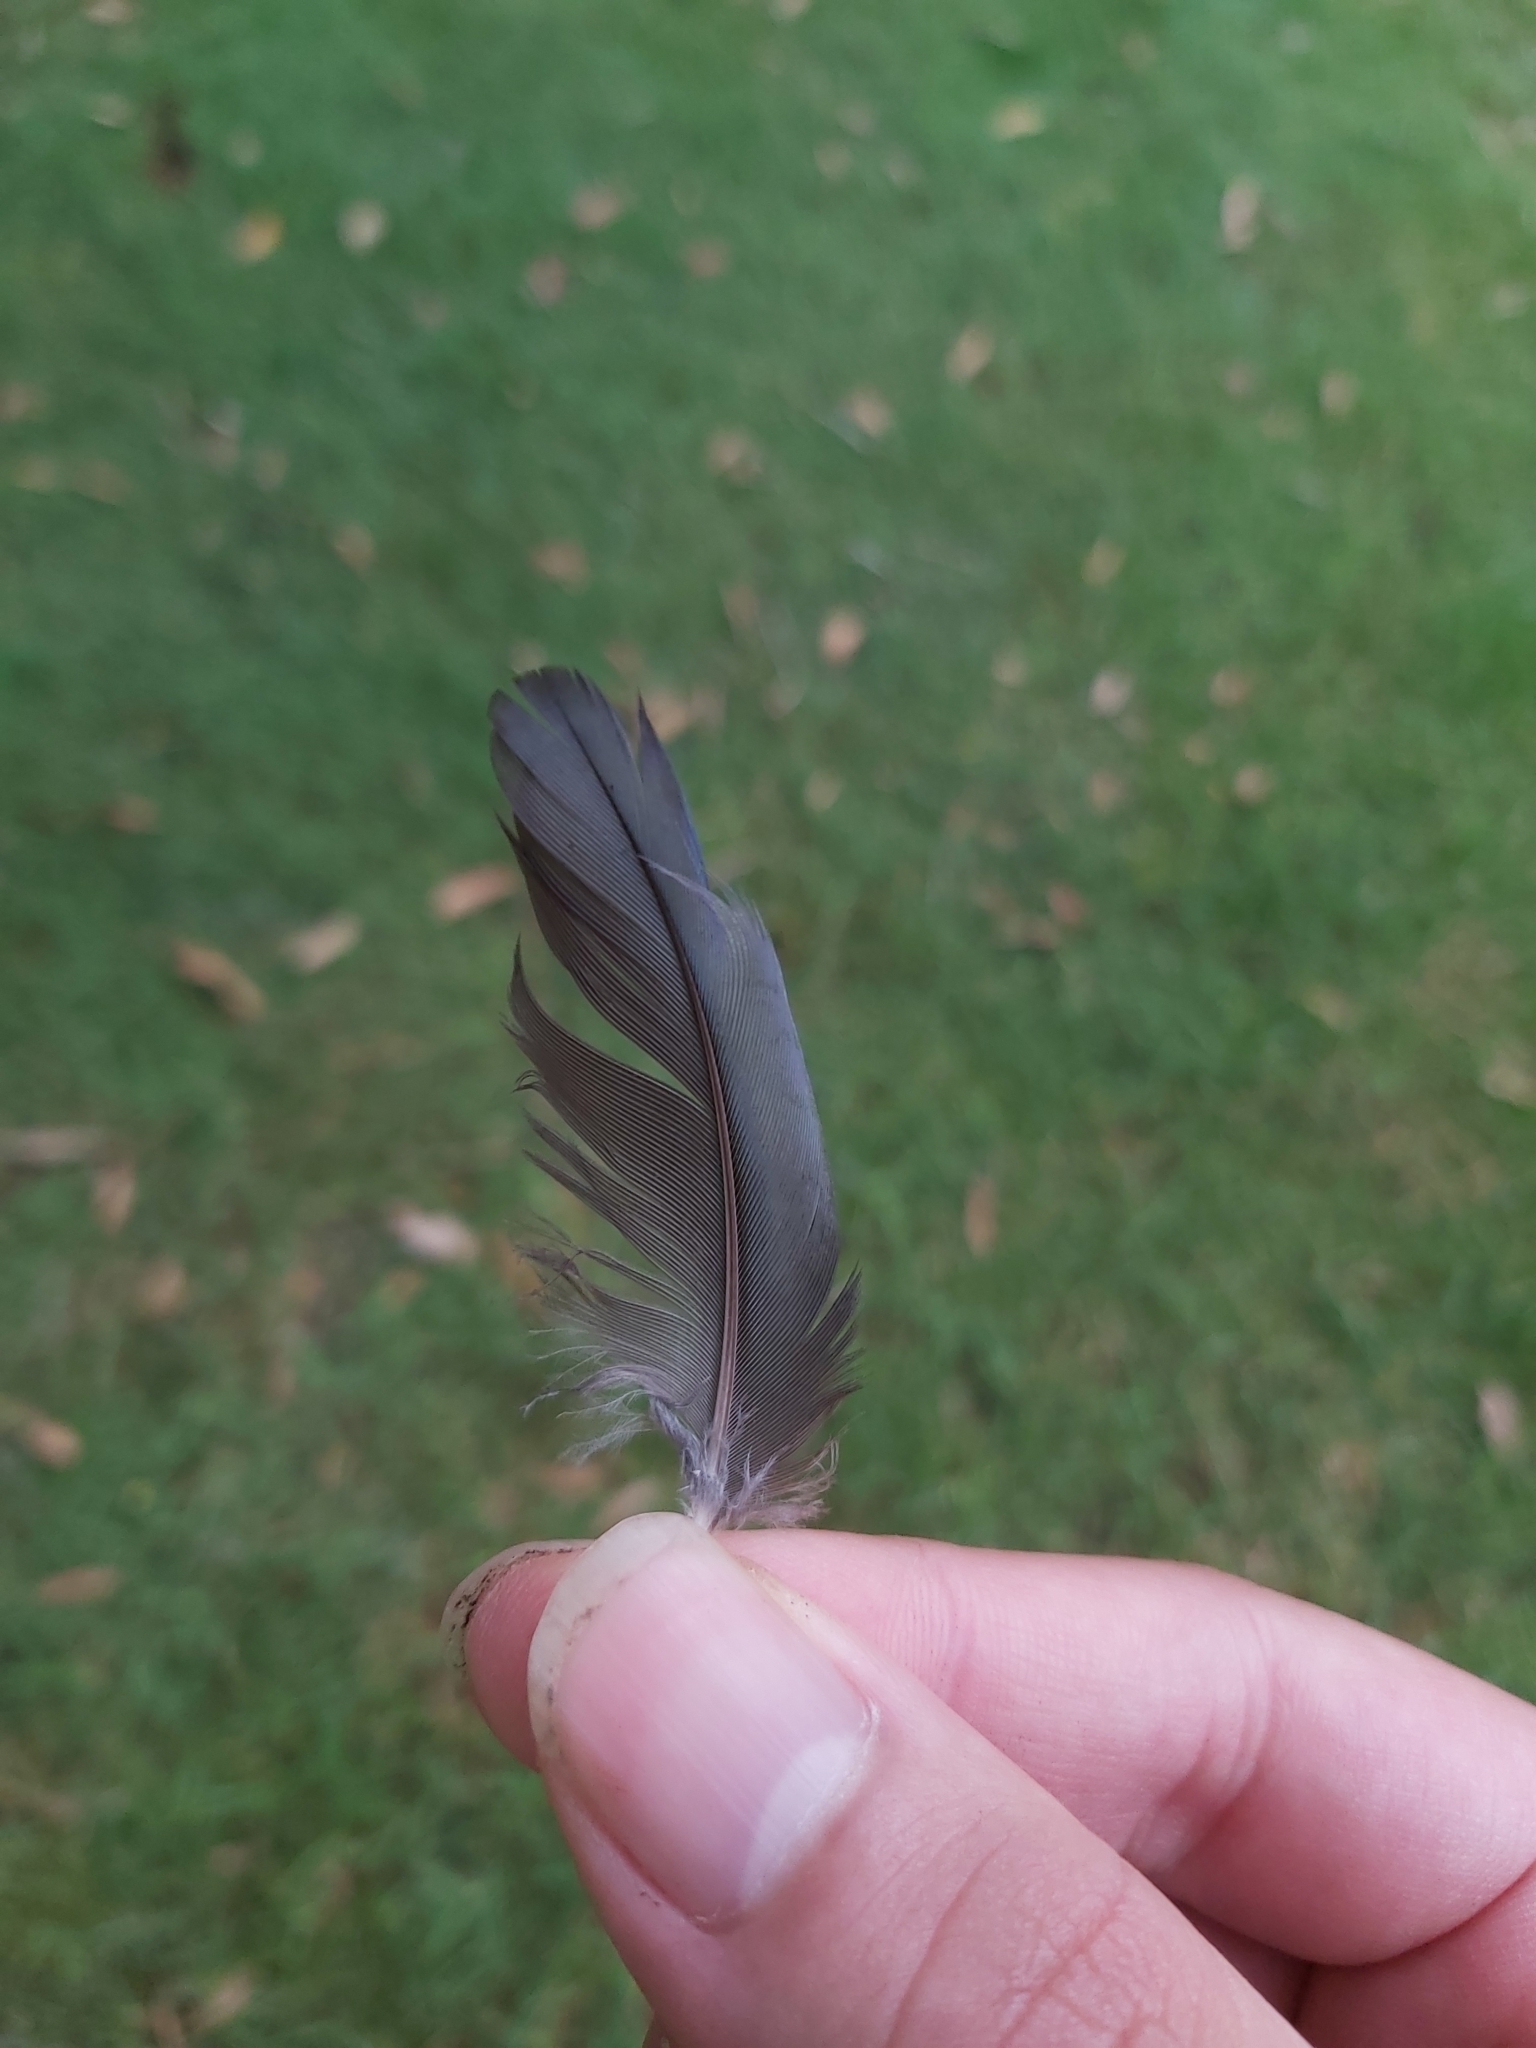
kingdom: Animalia
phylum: Chordata
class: Aves
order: Psittaciformes
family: Psittacidae
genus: Platycercus
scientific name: Platycercus elegans
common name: Crimson rosella
